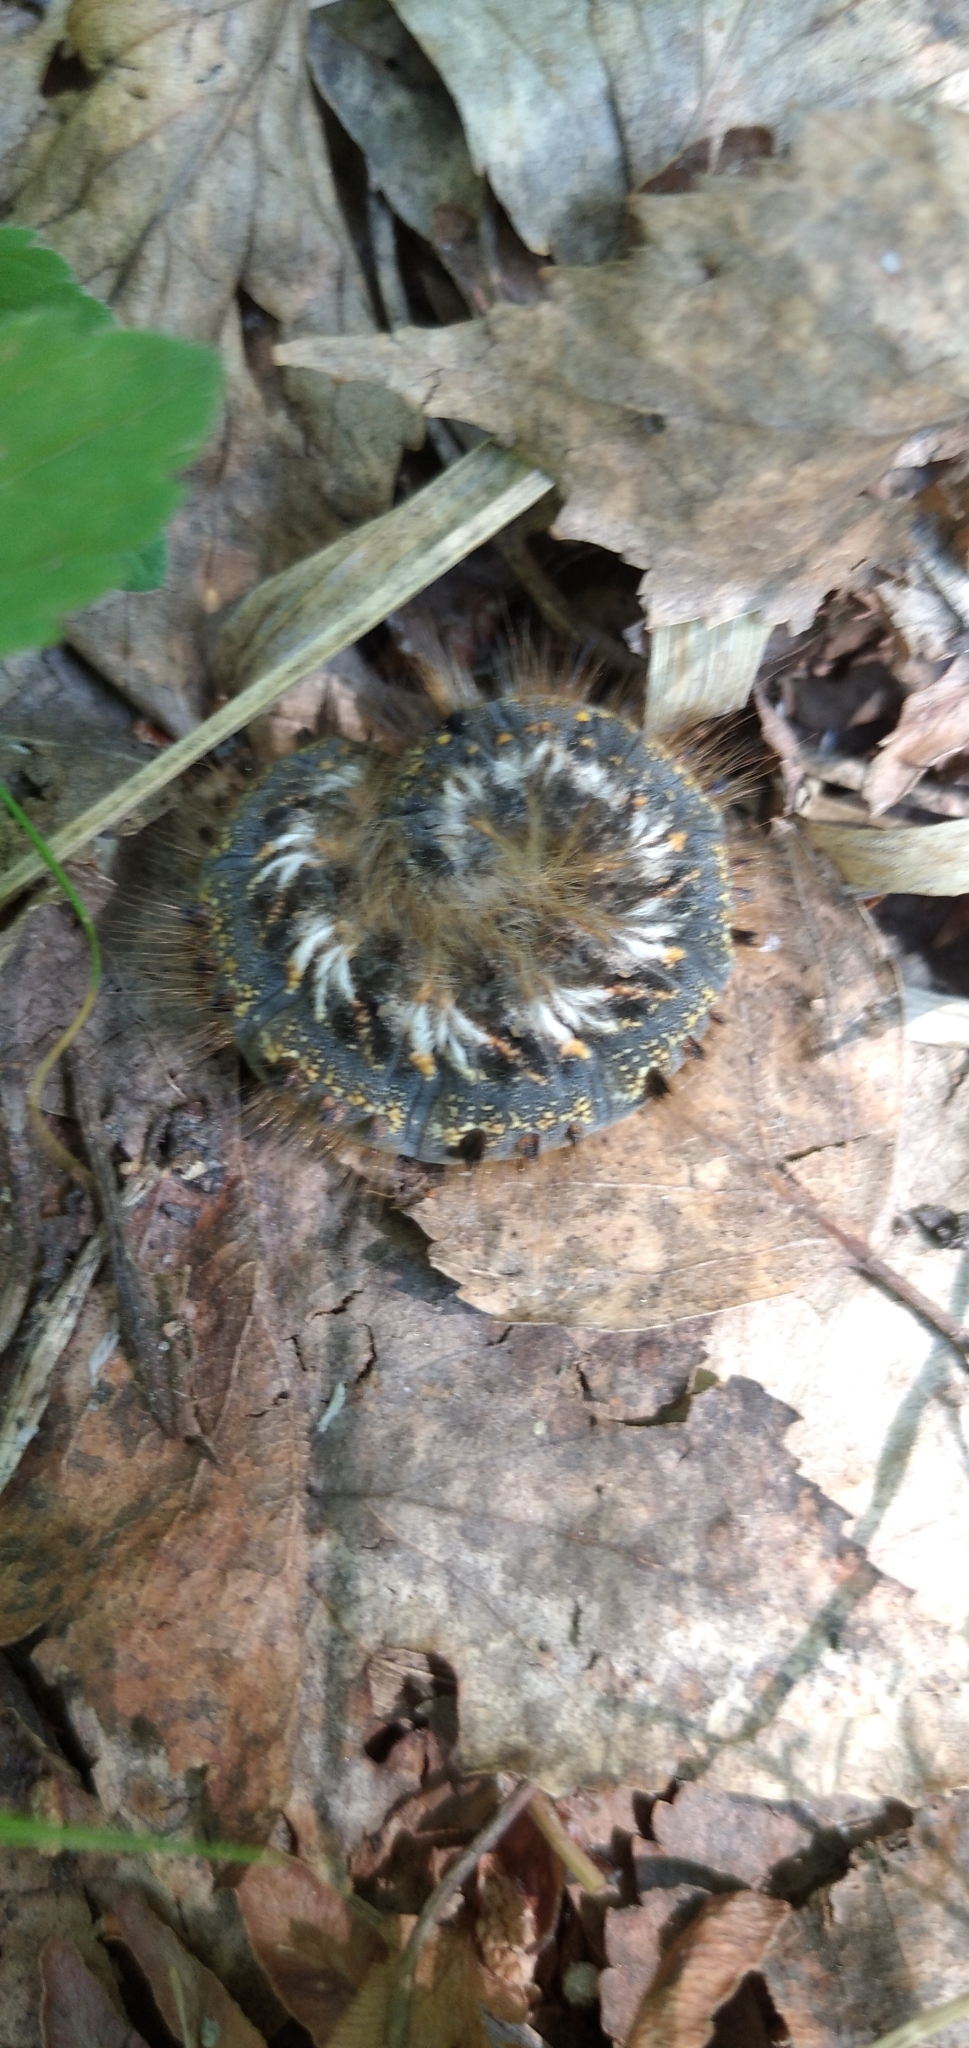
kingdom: Animalia
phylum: Arthropoda
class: Insecta
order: Lepidoptera
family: Lasiocampidae
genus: Euthrix
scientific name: Euthrix potatoria
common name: Drinker
